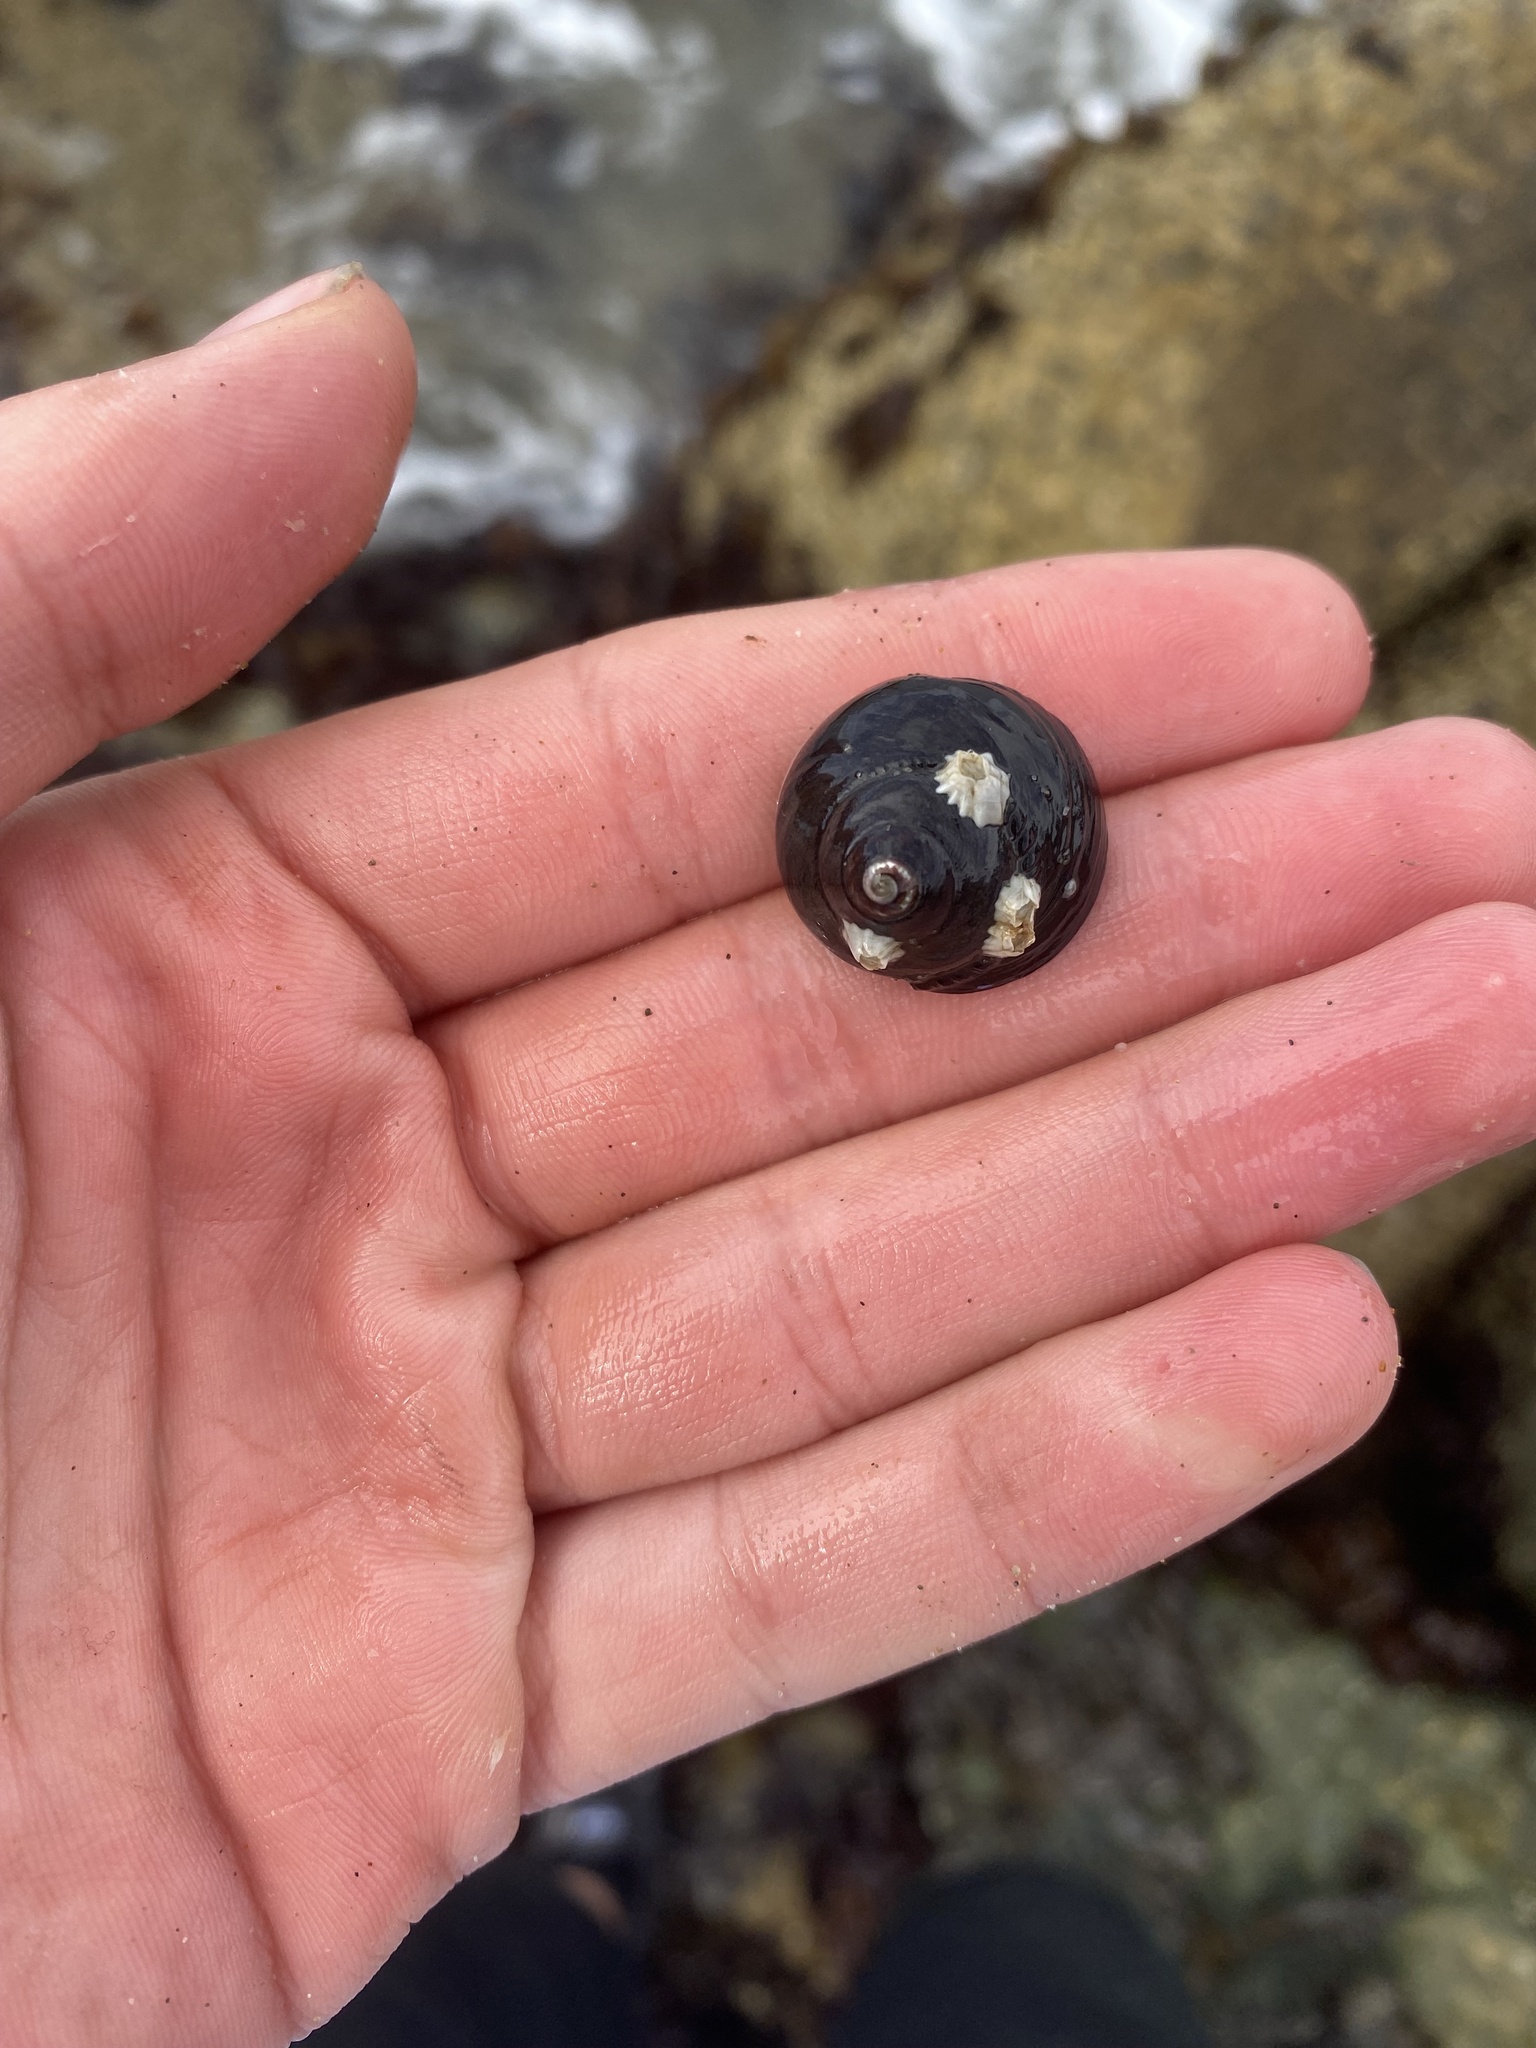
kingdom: Animalia
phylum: Mollusca
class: Gastropoda
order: Trochida
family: Tegulidae
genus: Tegula
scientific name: Tegula funebralis
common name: Black tegula
